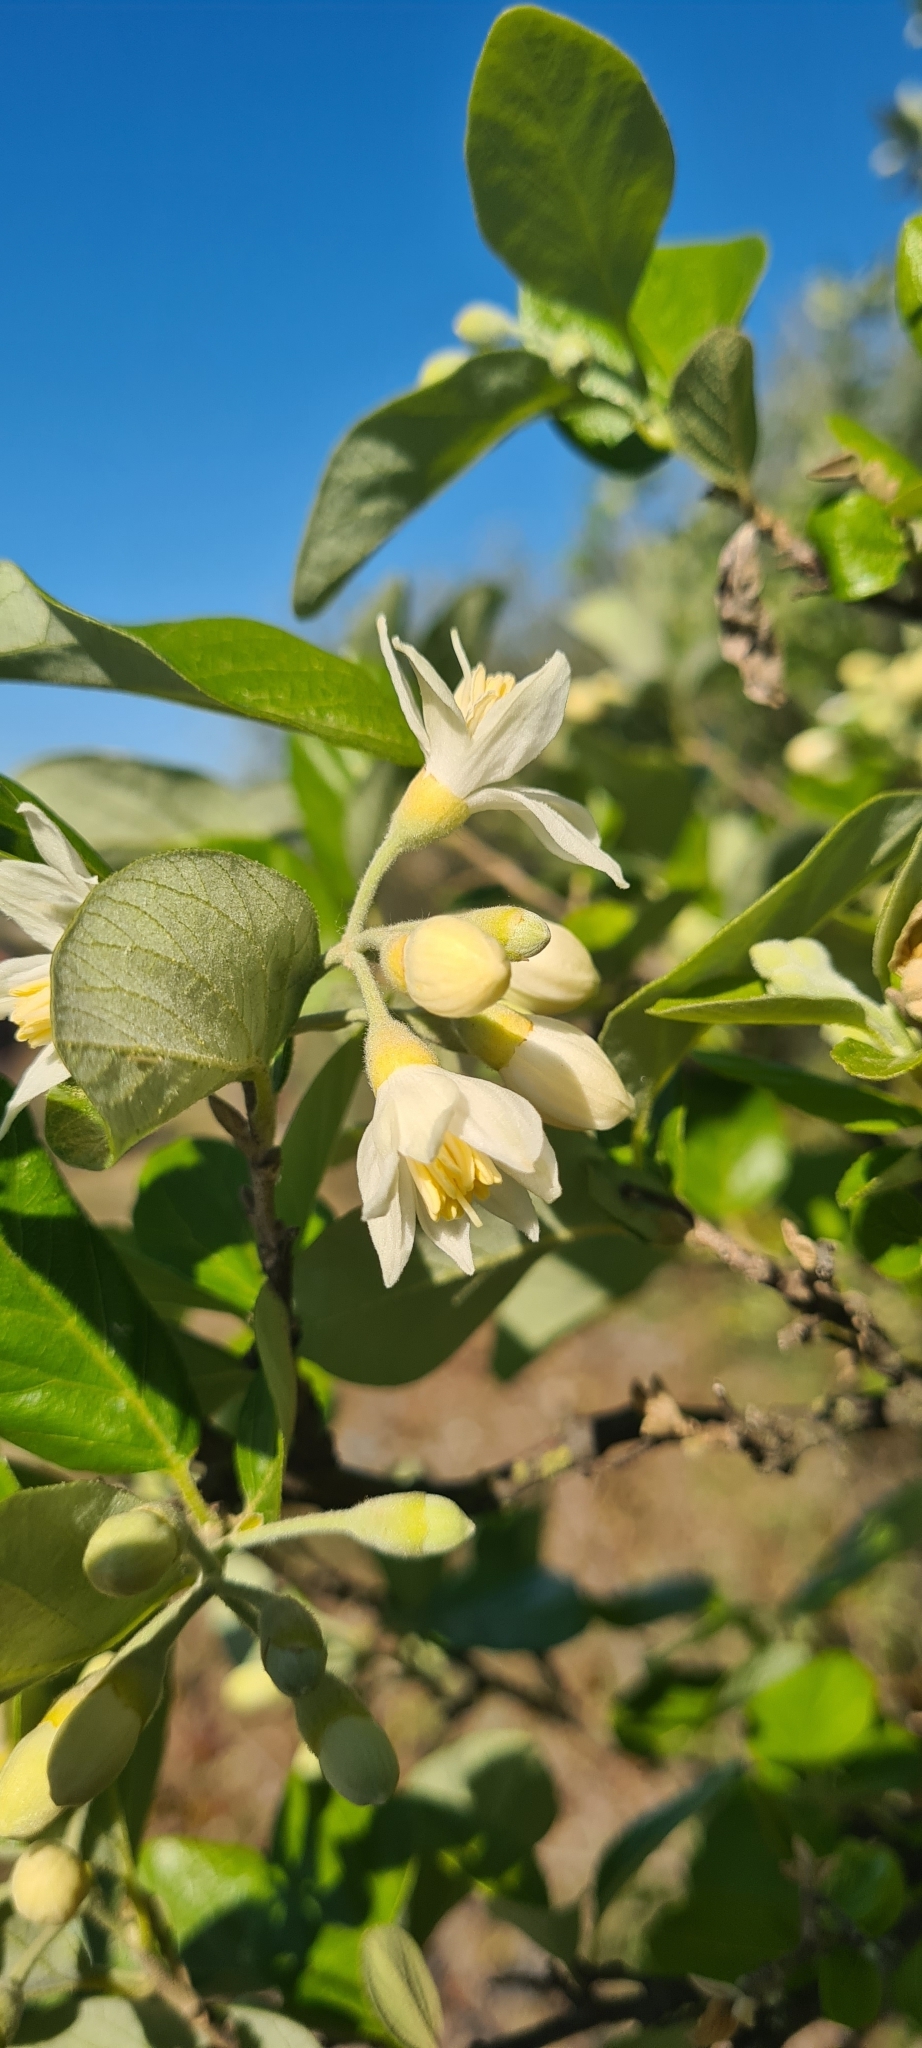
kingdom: Plantae
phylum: Tracheophyta
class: Magnoliopsida
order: Ericales
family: Styracaceae
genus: Styrax
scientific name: Styrax officinalis
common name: Storax
